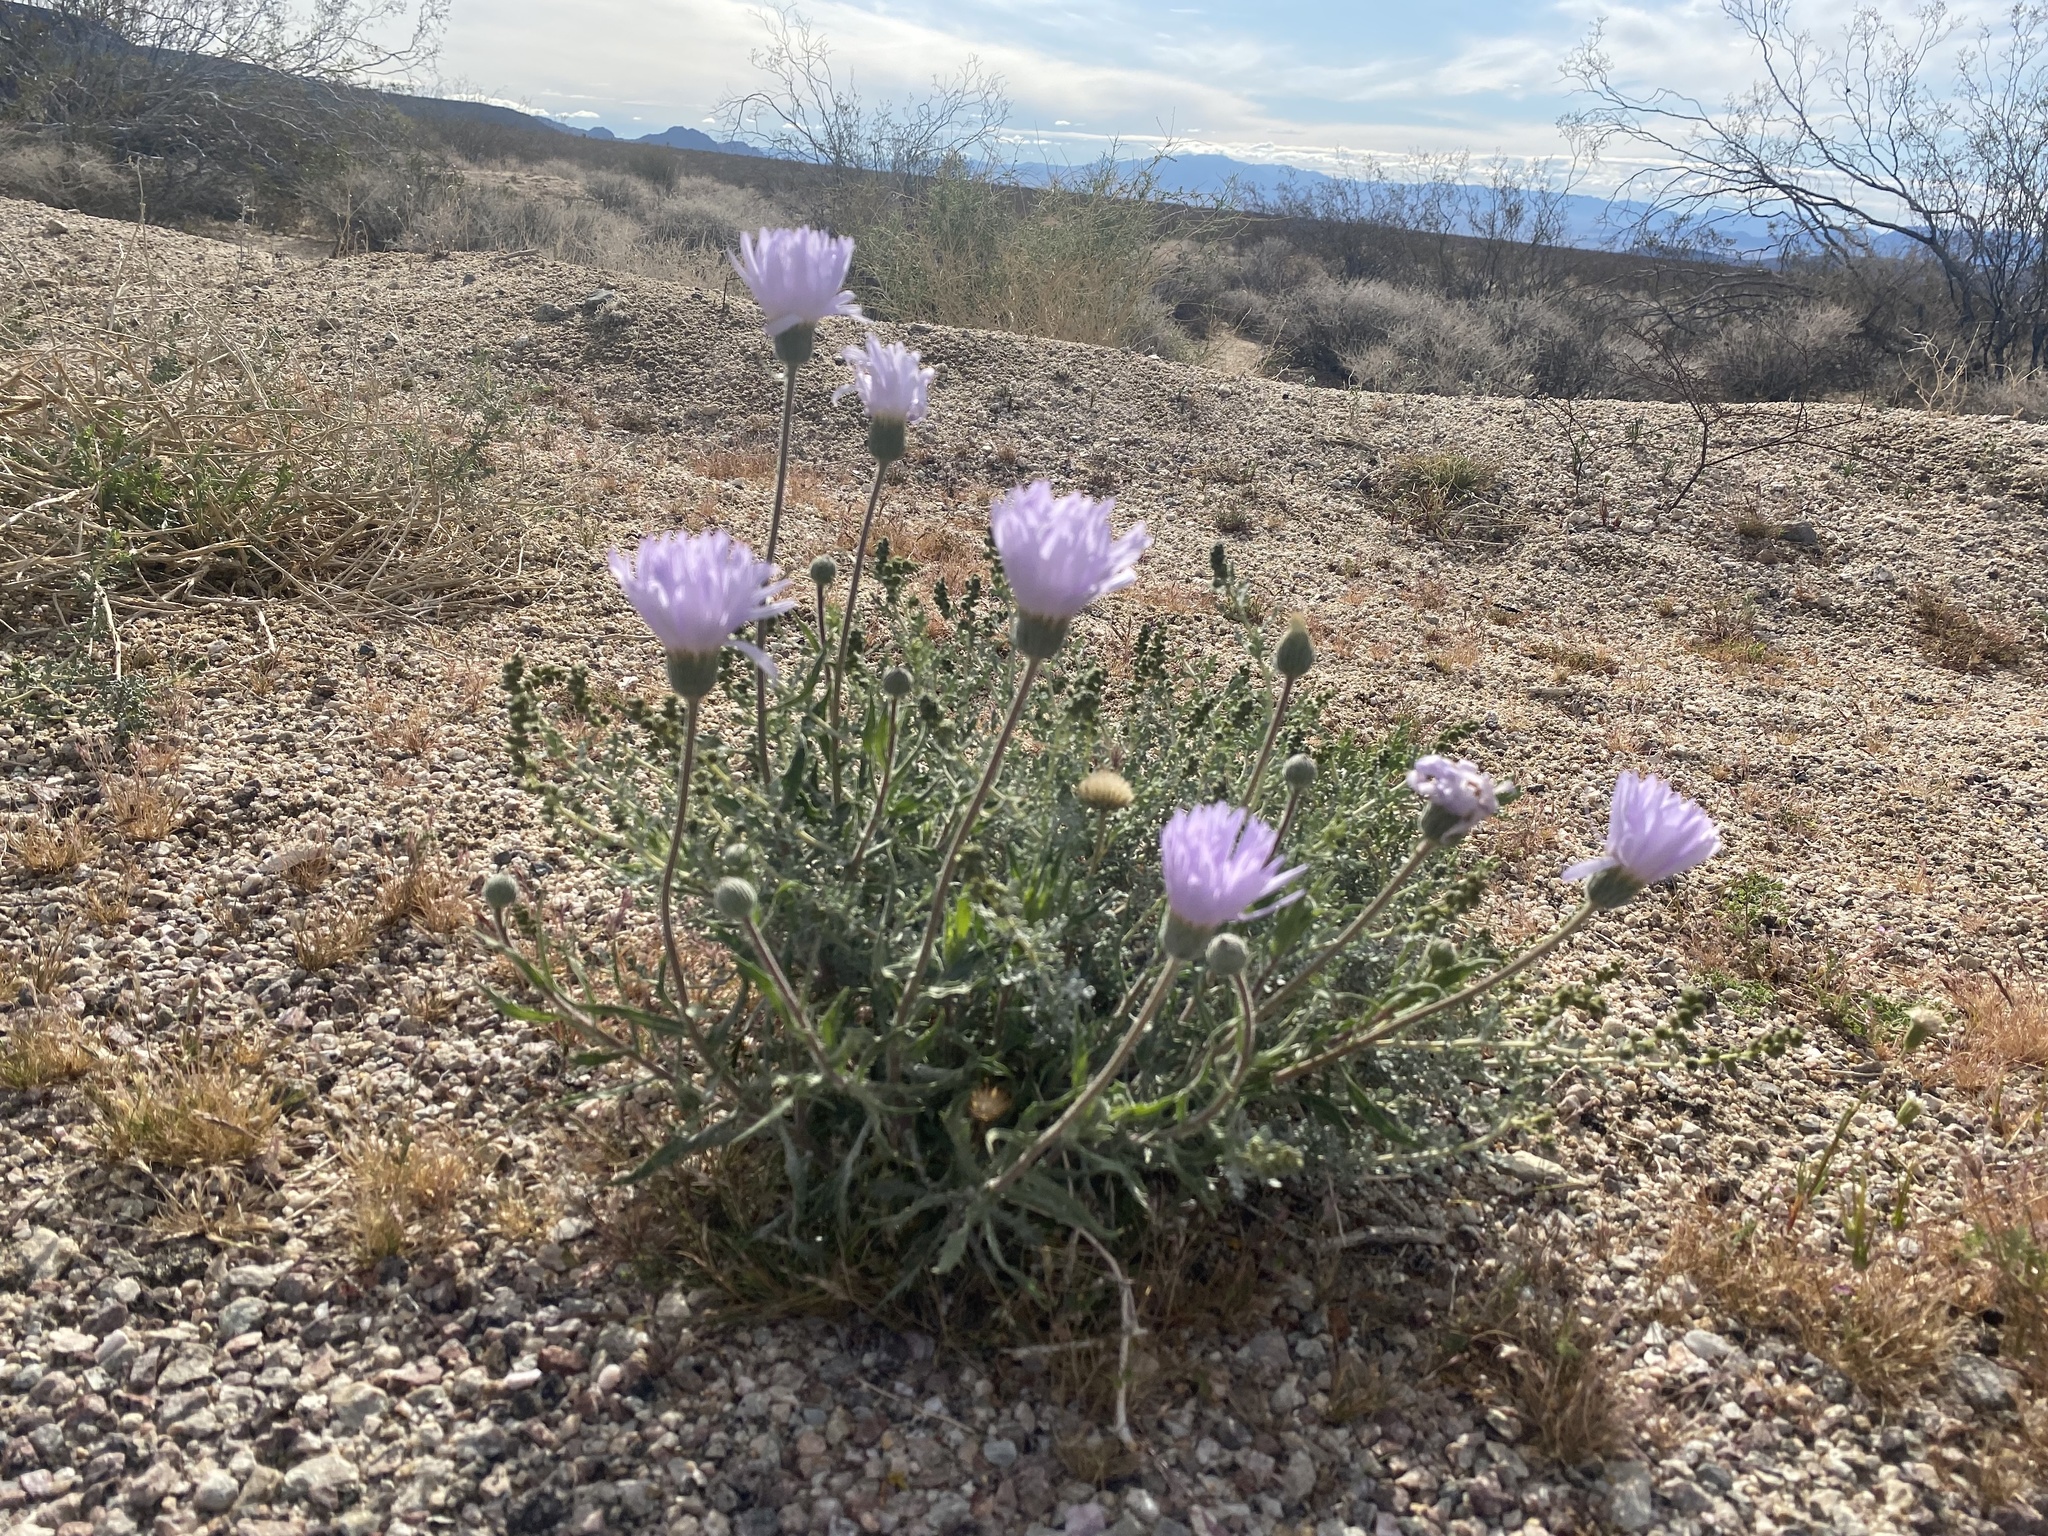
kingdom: Plantae
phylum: Tracheophyta
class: Magnoliopsida
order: Asterales
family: Asteraceae
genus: Xylorhiza
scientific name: Xylorhiza tortifolia
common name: Hurt-leaf woody-aster
